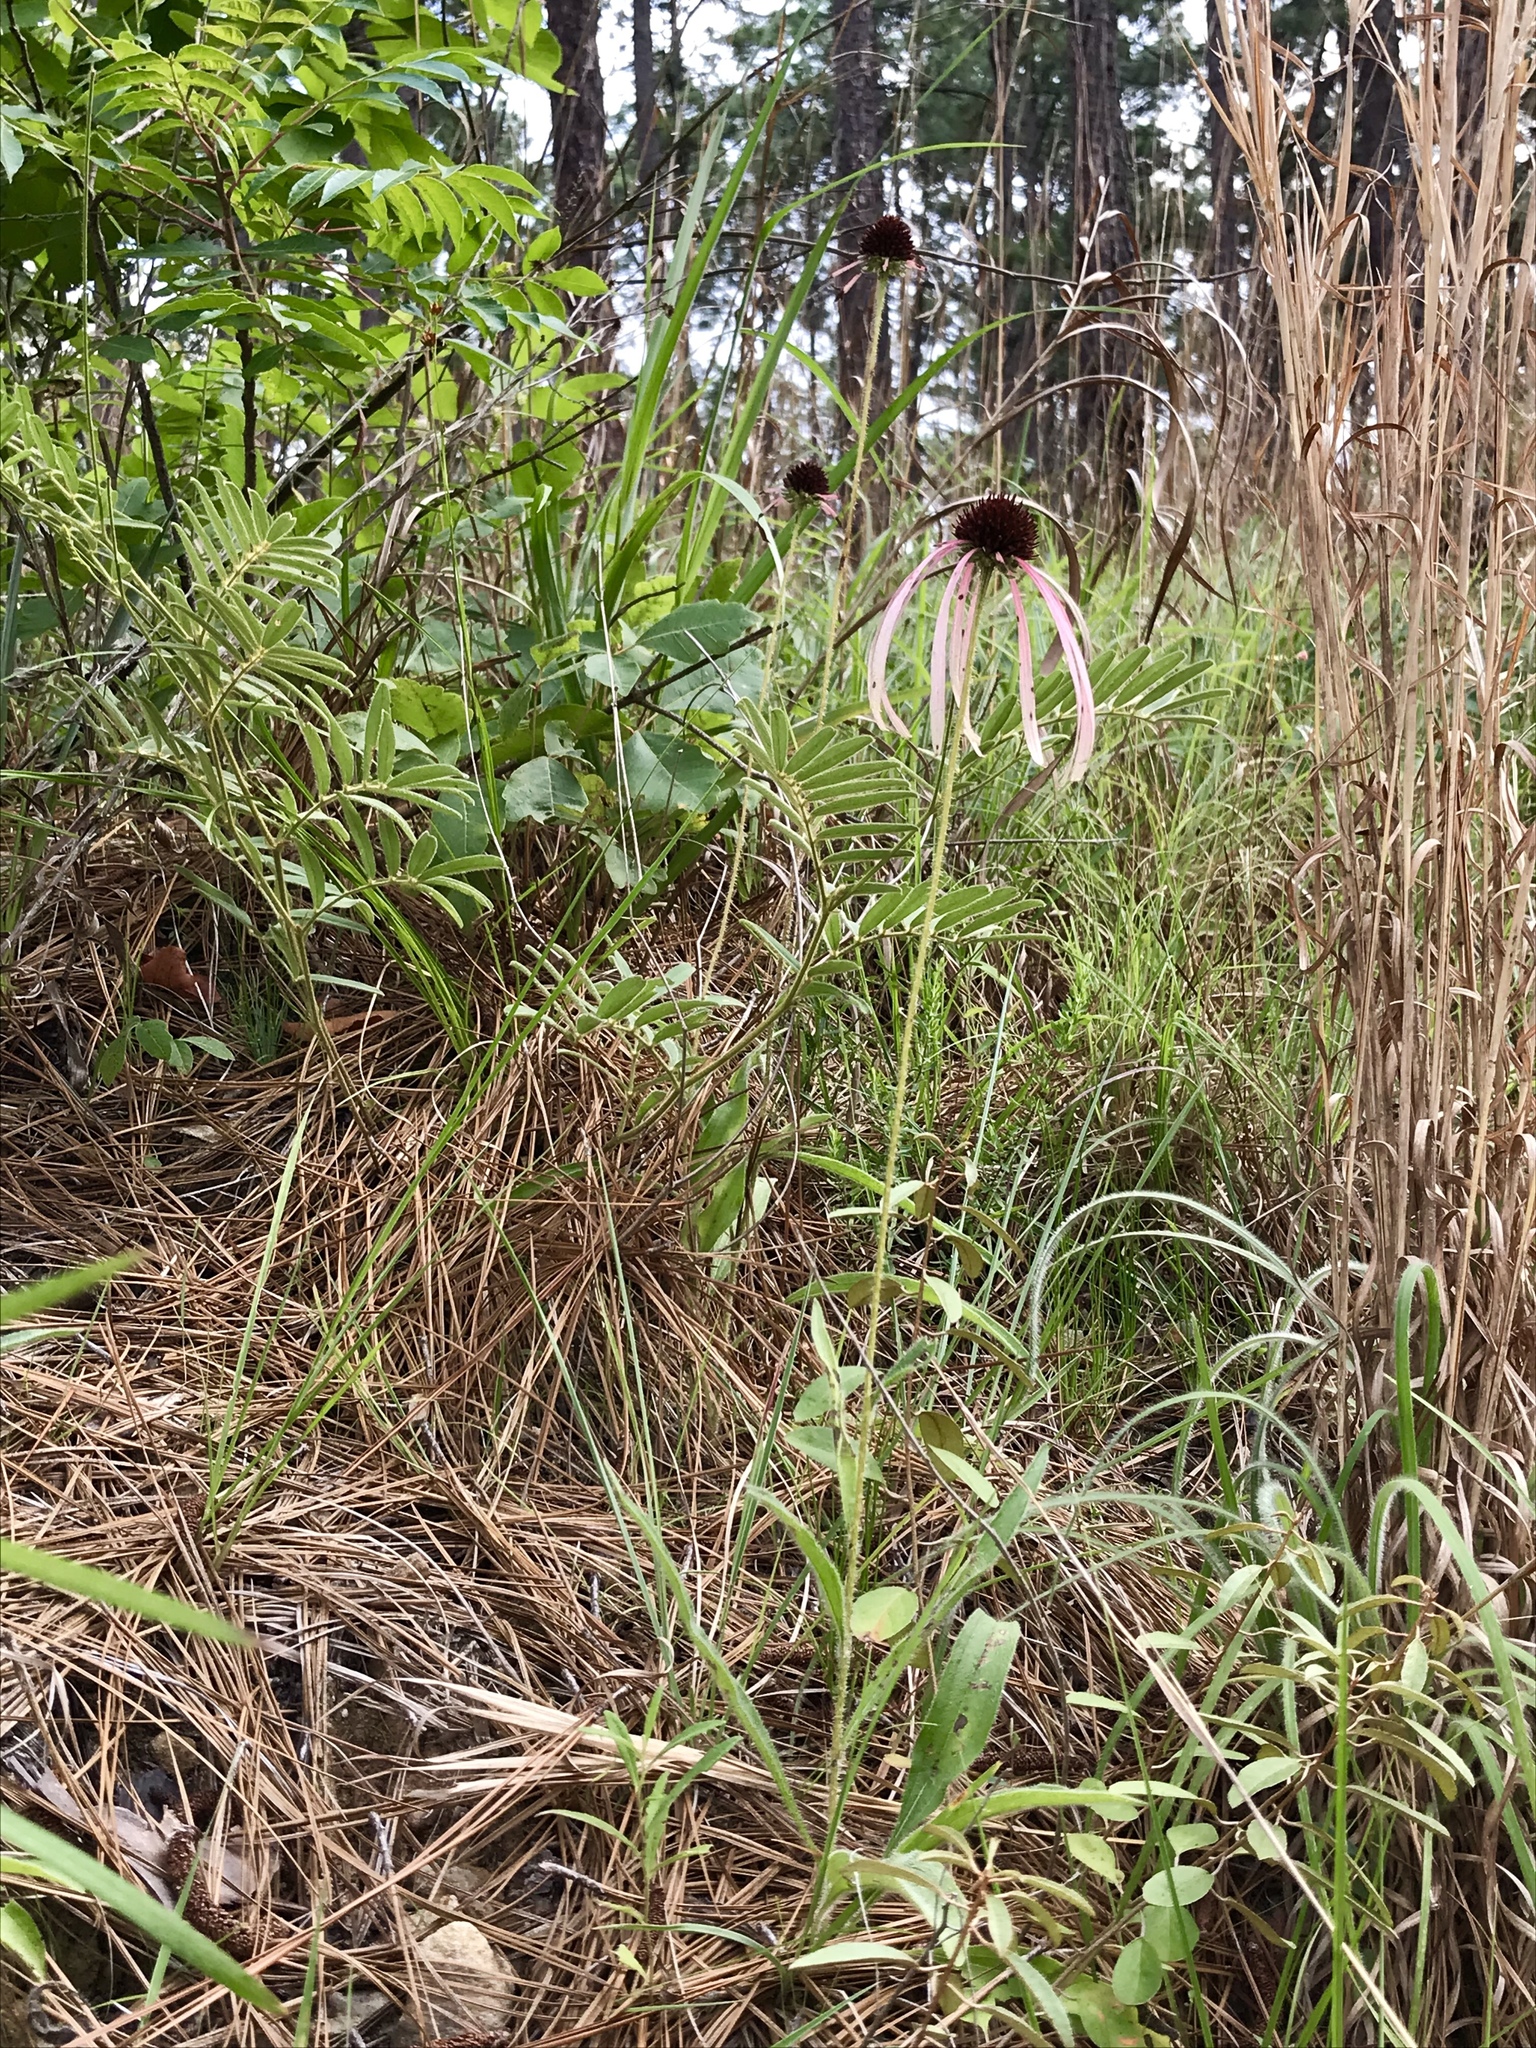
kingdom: Plantae
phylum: Tracheophyta
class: Magnoliopsida
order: Asterales
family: Asteraceae
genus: Echinacea
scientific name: Echinacea sanguinea
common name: Sanguine purple-coneflower
